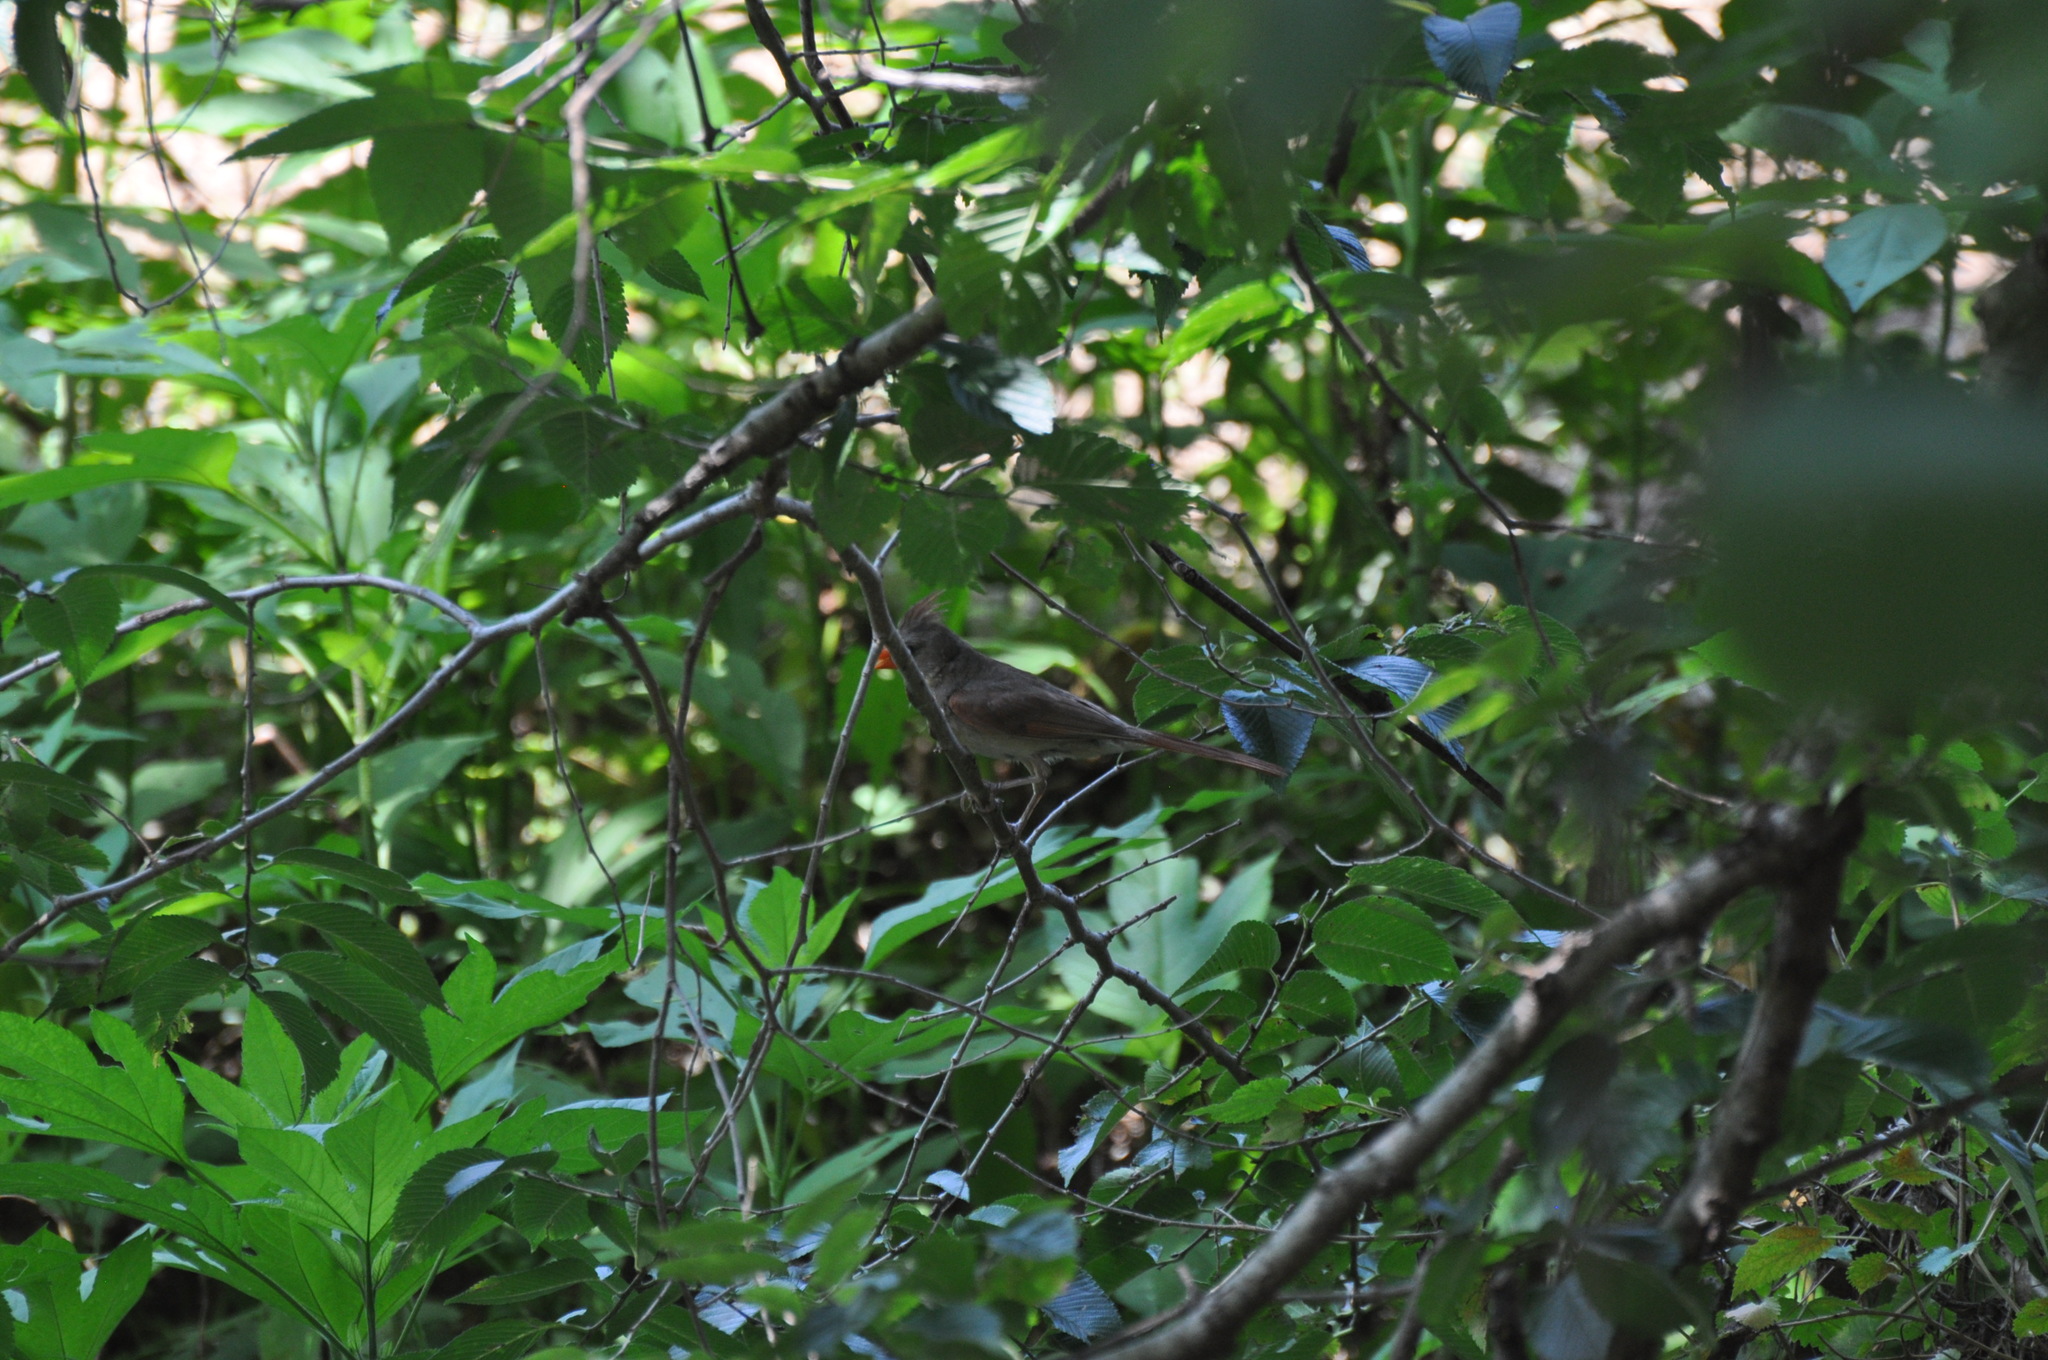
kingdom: Animalia
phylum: Chordata
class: Aves
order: Passeriformes
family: Cardinalidae
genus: Cardinalis
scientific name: Cardinalis cardinalis
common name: Northern cardinal
